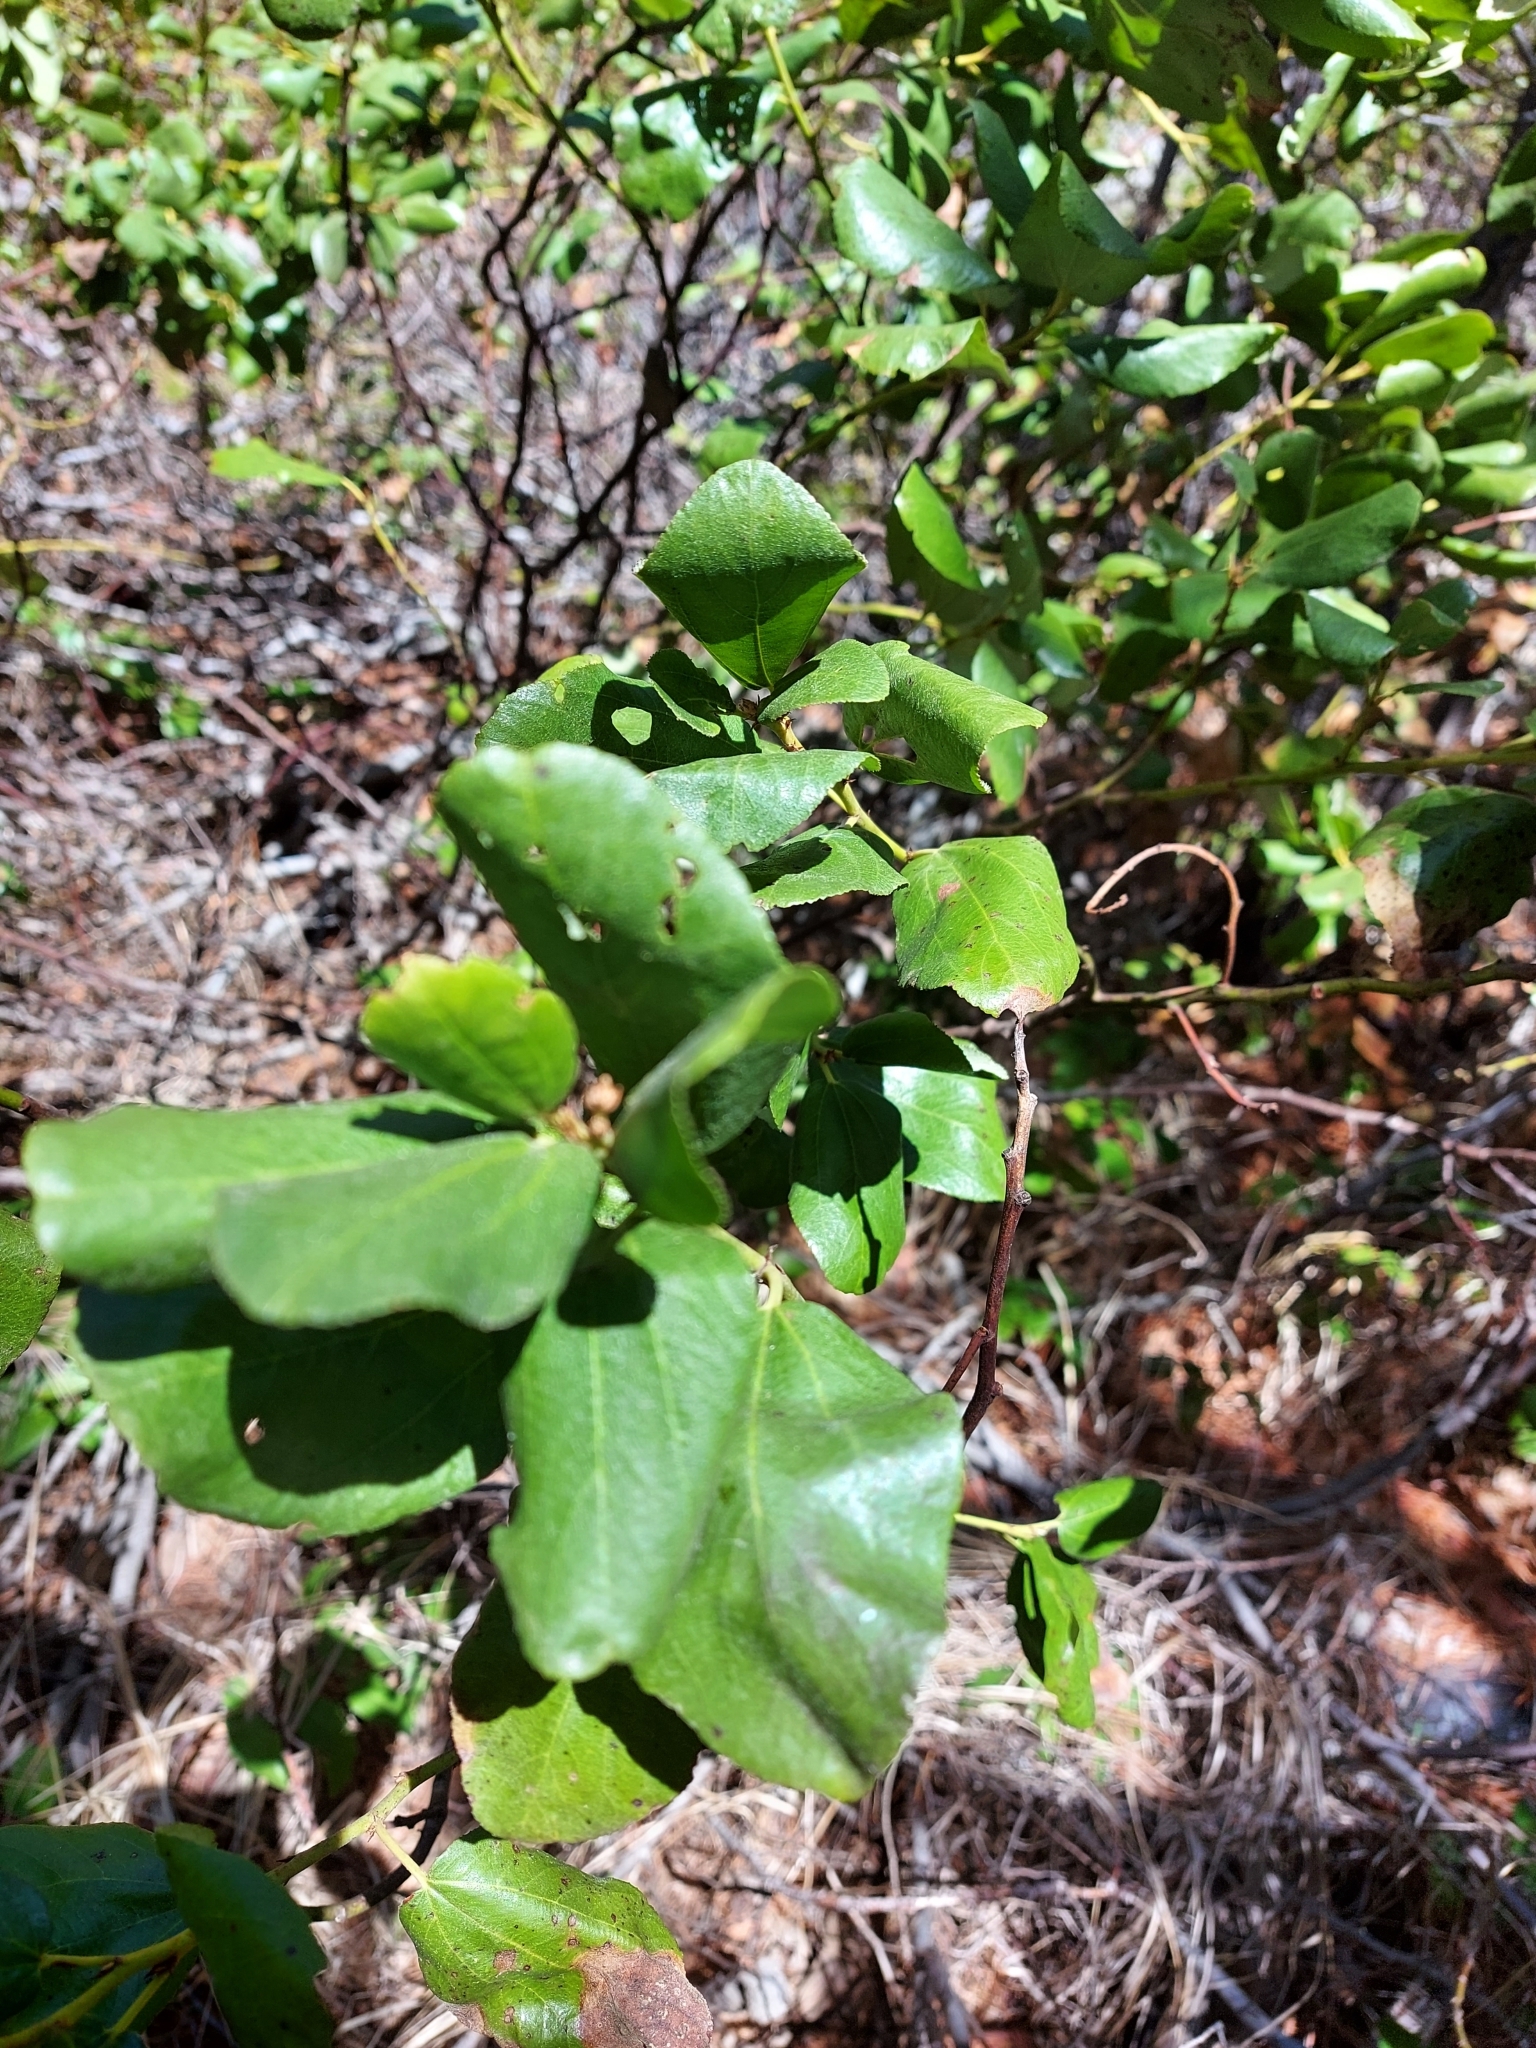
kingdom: Plantae
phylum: Tracheophyta
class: Magnoliopsida
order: Rosales
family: Rhamnaceae
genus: Ceanothus
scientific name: Ceanothus velutinus
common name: Snowbrush
